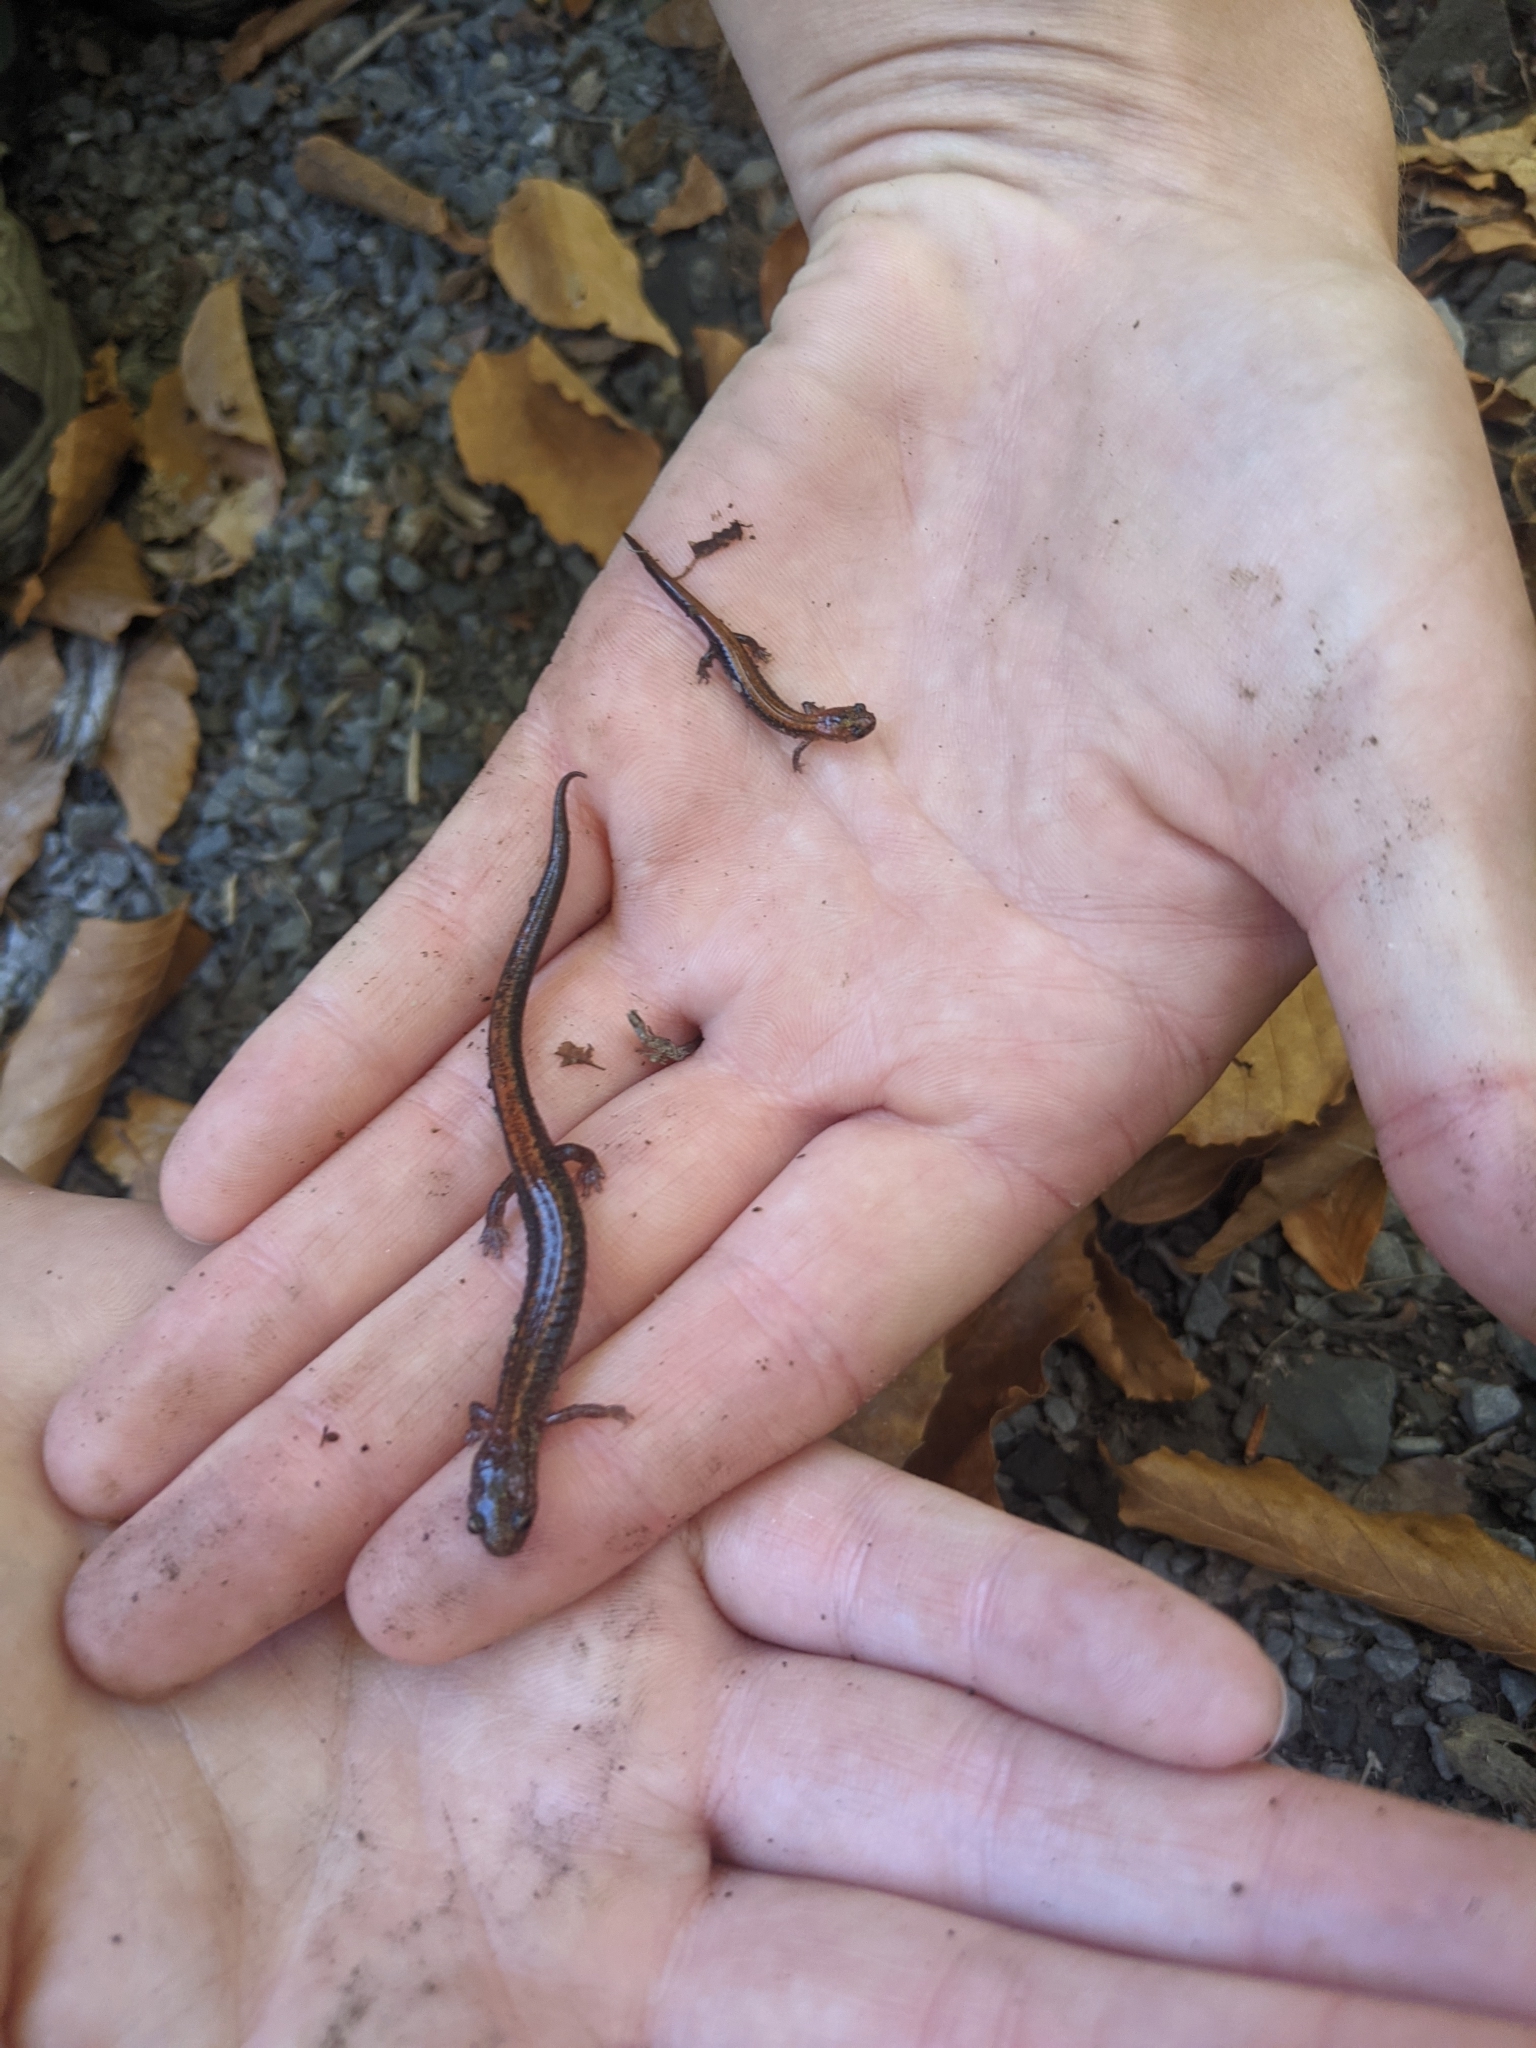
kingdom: Animalia
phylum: Chordata
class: Amphibia
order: Caudata
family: Plethodontidae
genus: Plethodon
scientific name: Plethodon cinereus
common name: Redback salamander
